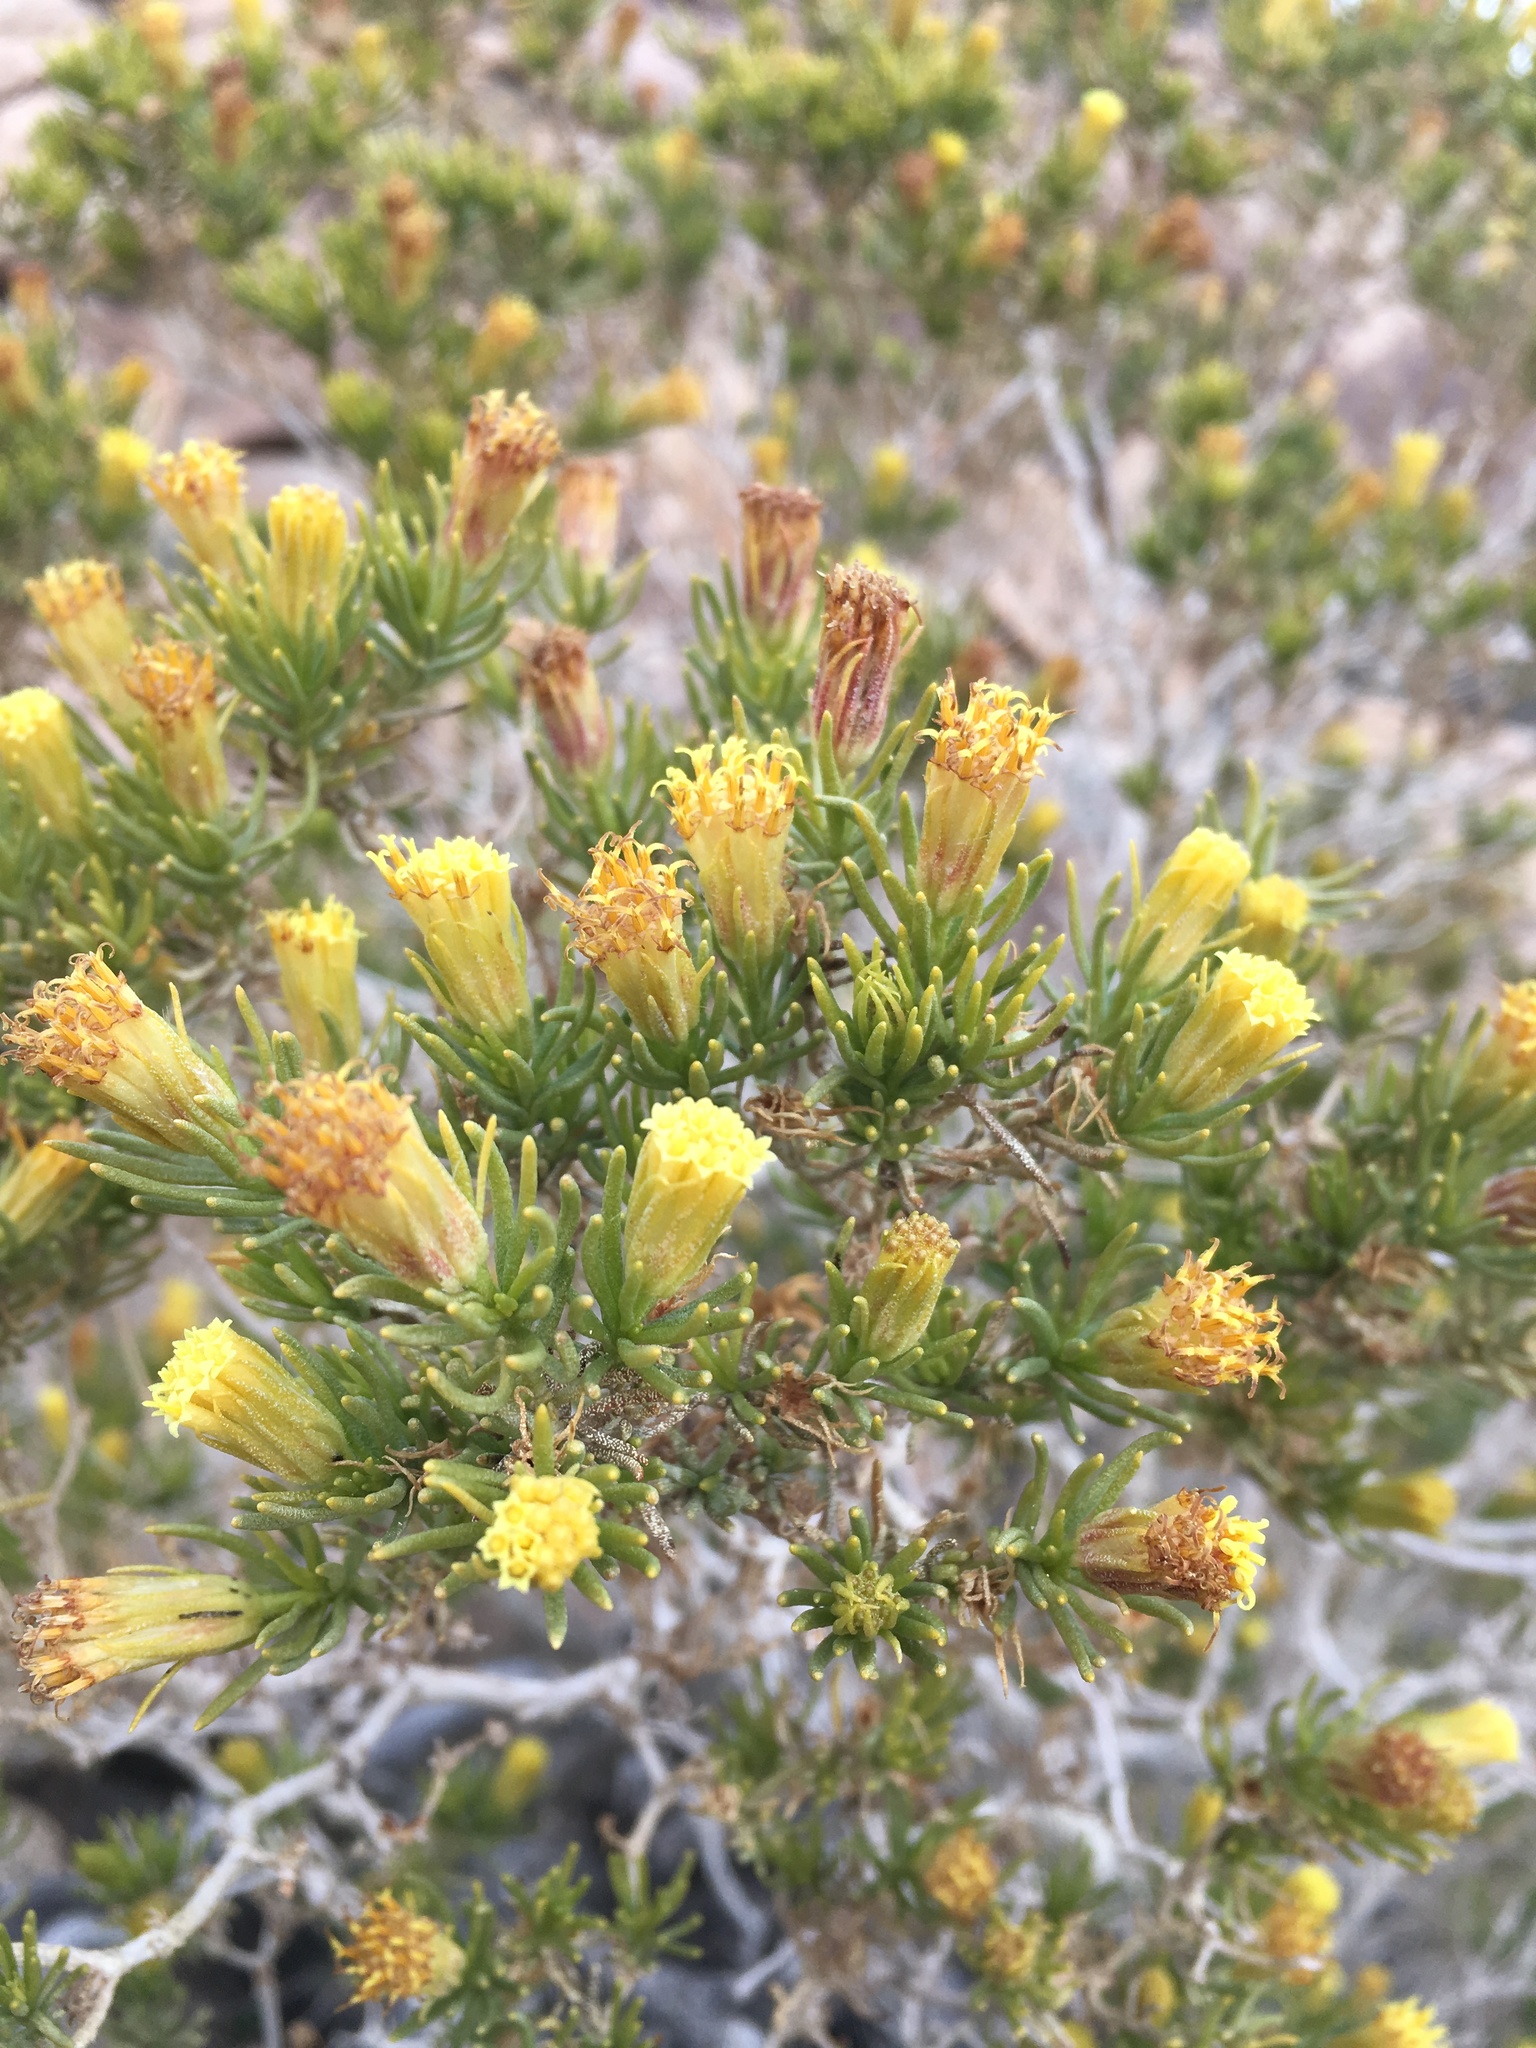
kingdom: Plantae
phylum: Tracheophyta
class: Magnoliopsida
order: Asterales
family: Asteraceae
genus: Peucephyllum
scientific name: Peucephyllum schottii
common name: Pygmy-cedar
